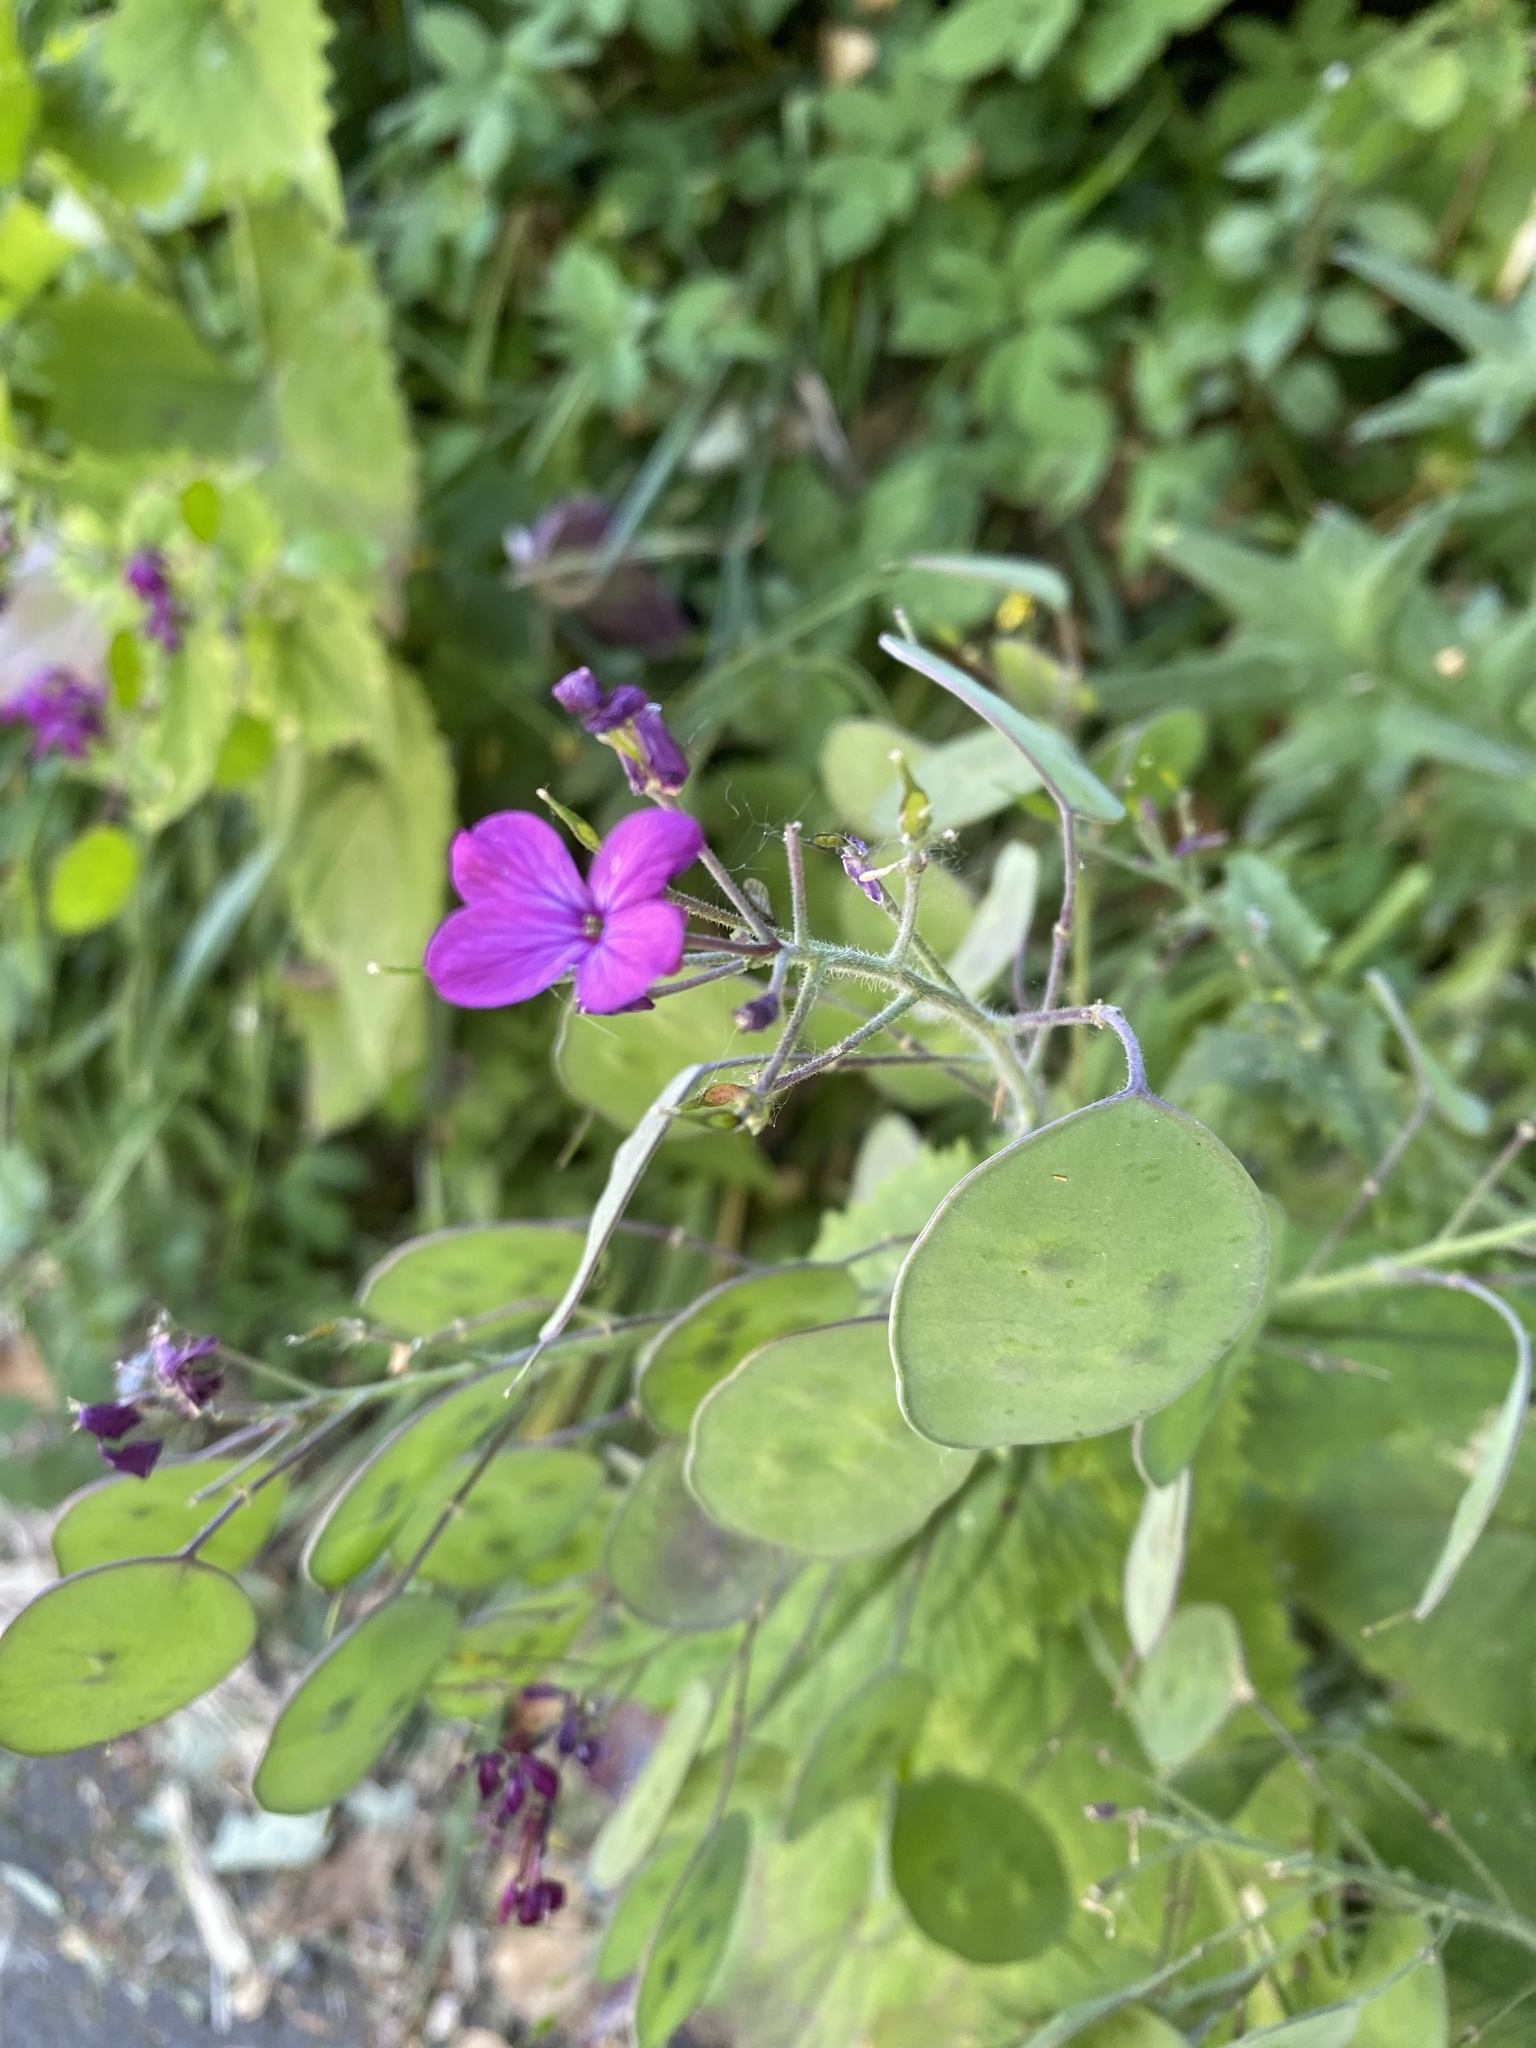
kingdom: Plantae
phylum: Tracheophyta
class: Magnoliopsida
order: Brassicales
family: Brassicaceae
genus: Lunaria
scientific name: Lunaria annua
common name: Honesty
